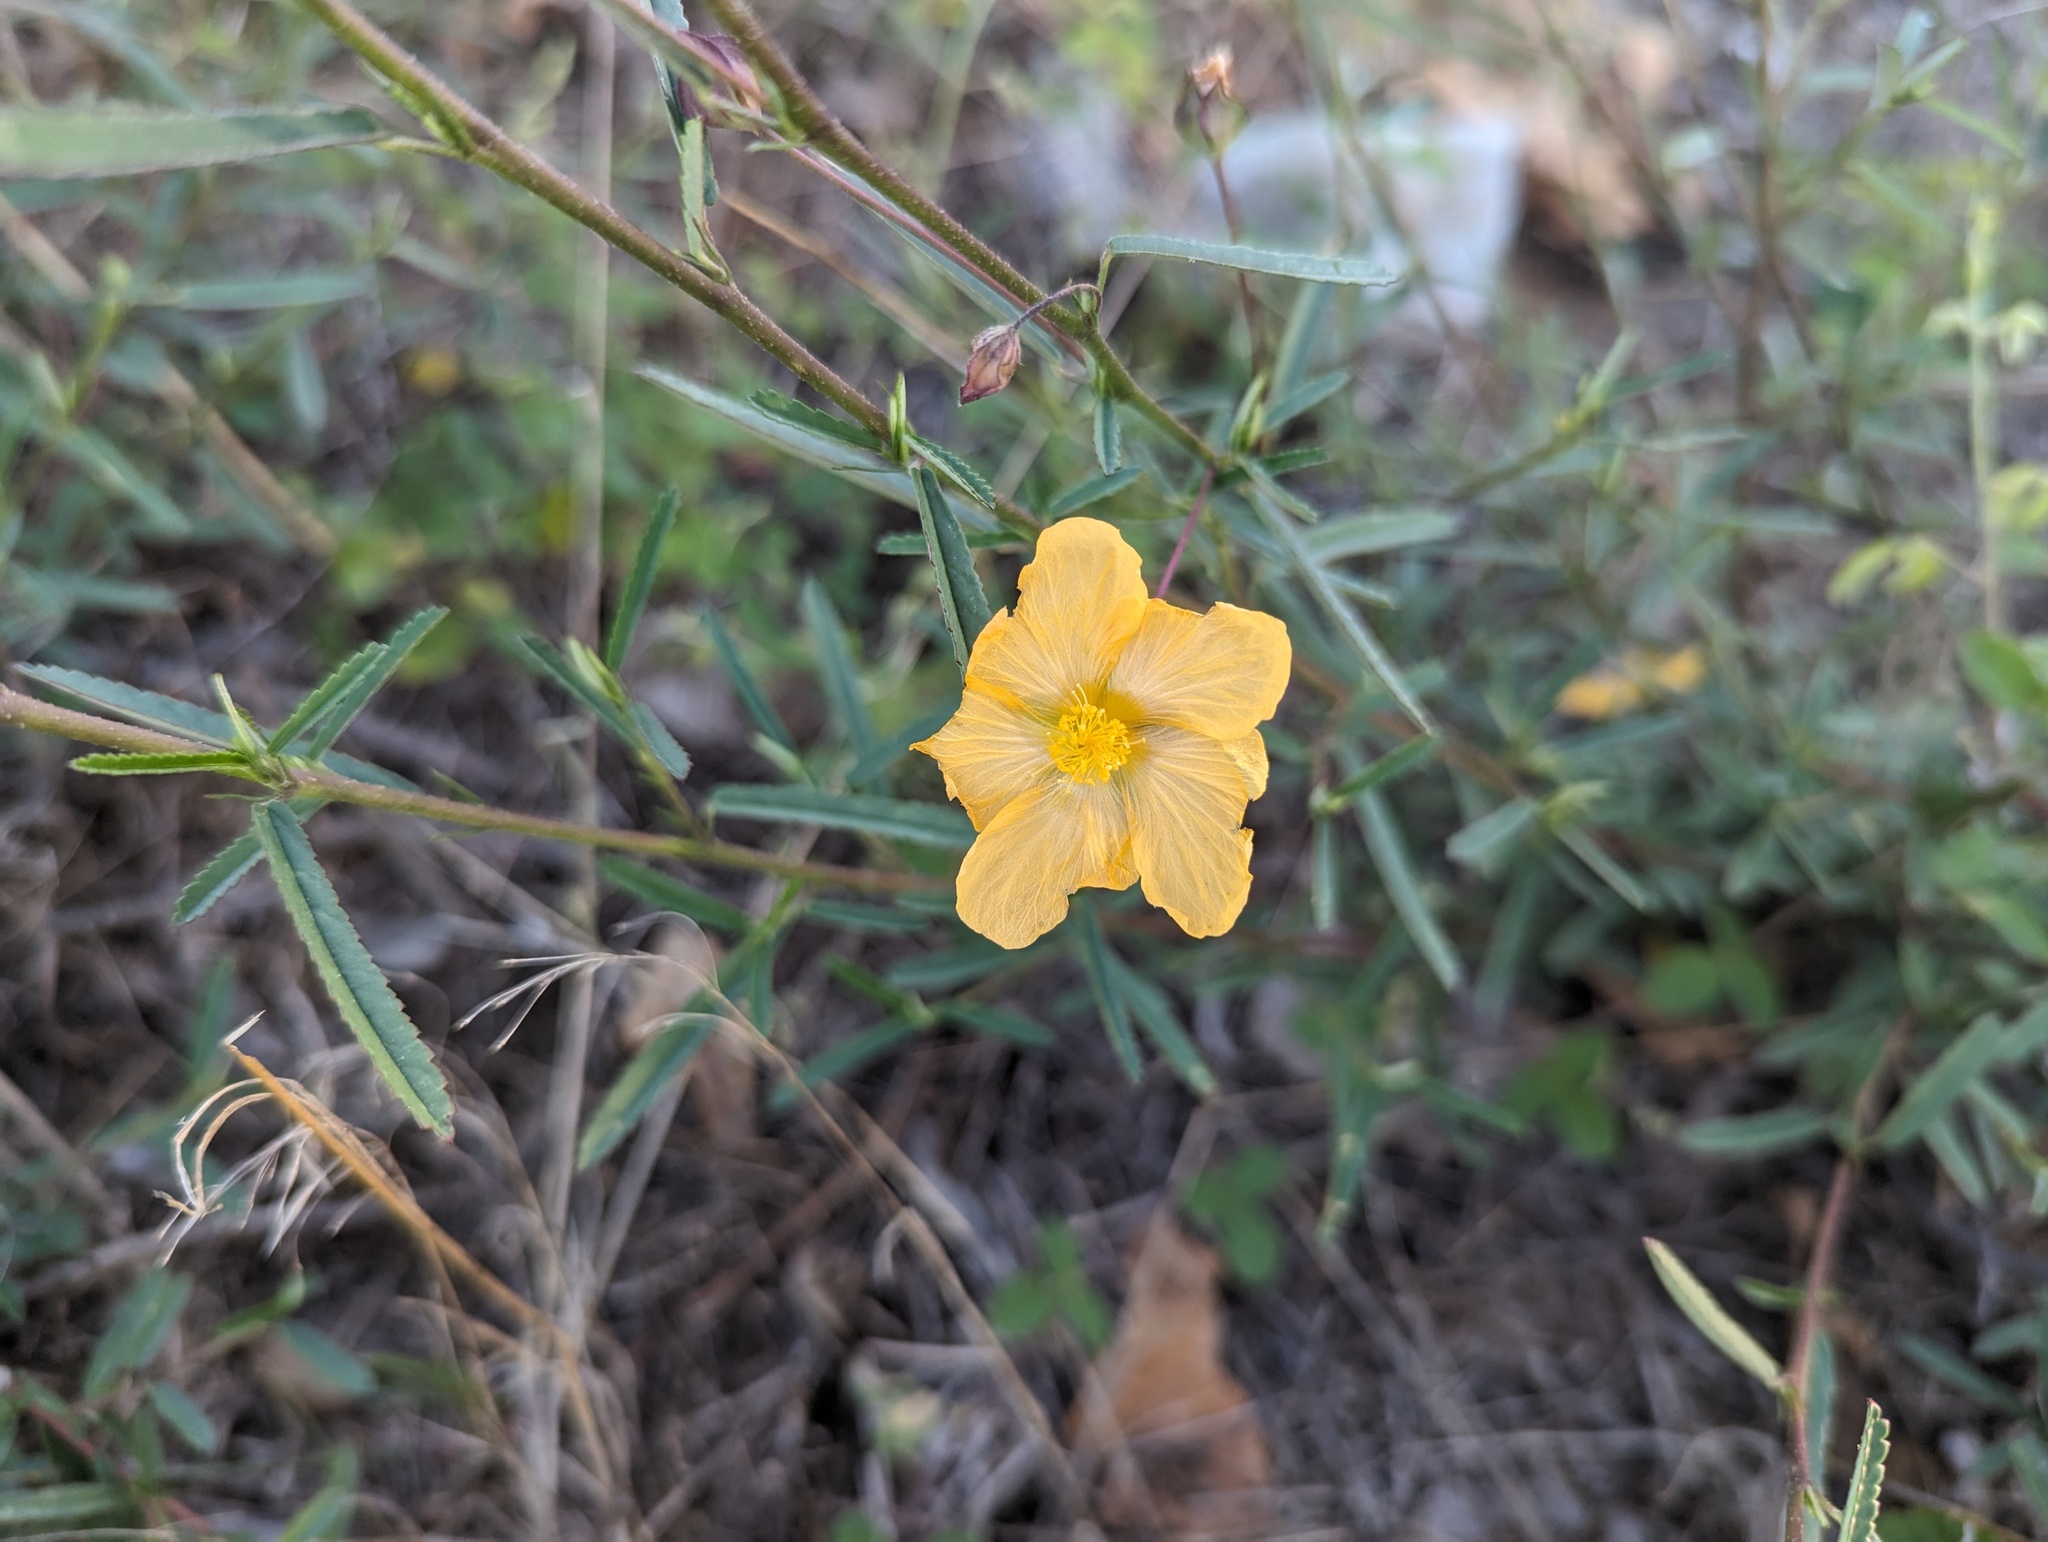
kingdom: Plantae
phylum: Tracheophyta
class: Magnoliopsida
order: Malvales
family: Malvaceae
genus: Sida
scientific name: Sida elliottii
